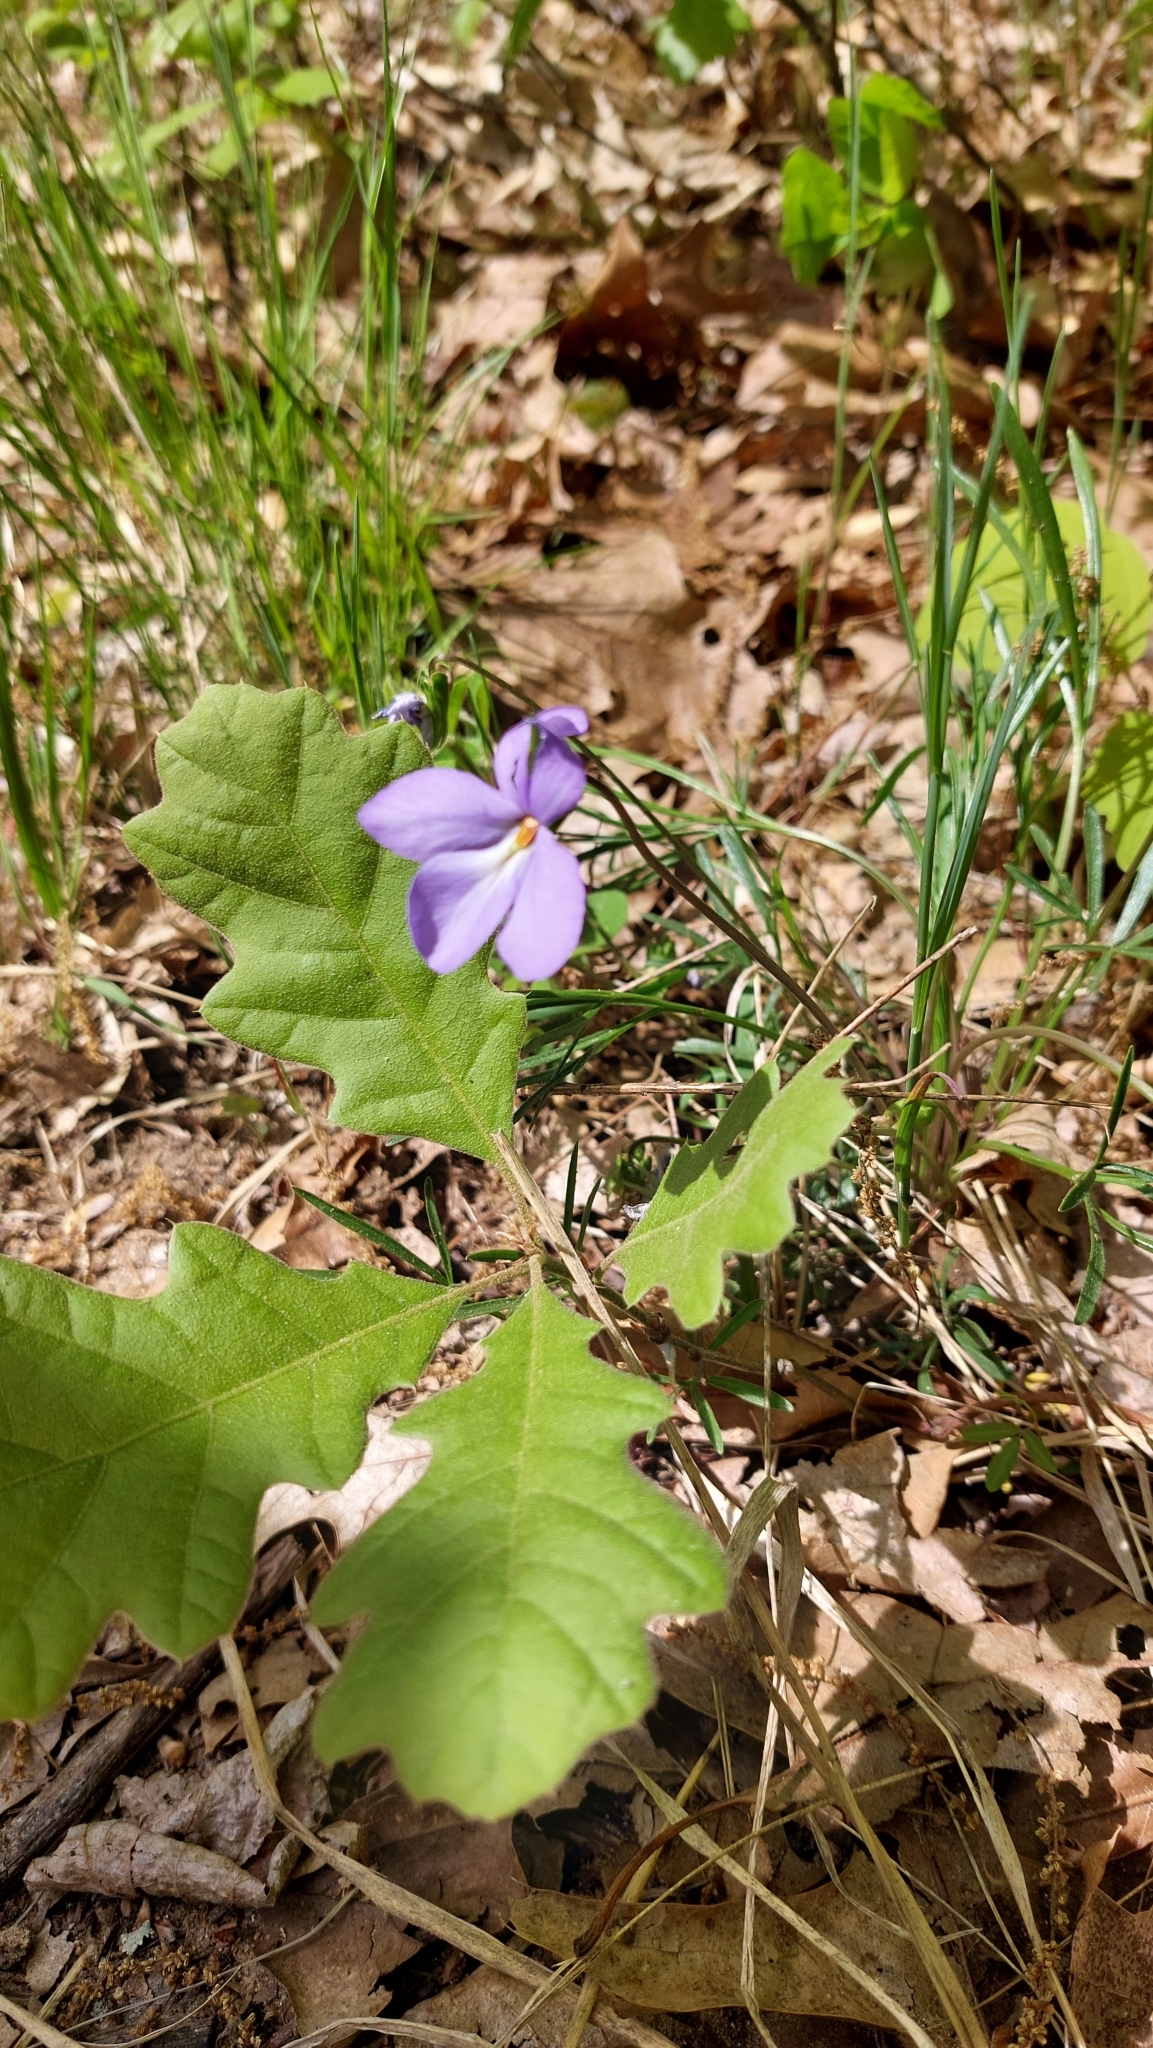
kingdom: Plantae
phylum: Tracheophyta
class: Magnoliopsida
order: Malpighiales
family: Violaceae
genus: Viola
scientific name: Viola pedata
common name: Pansy violet
